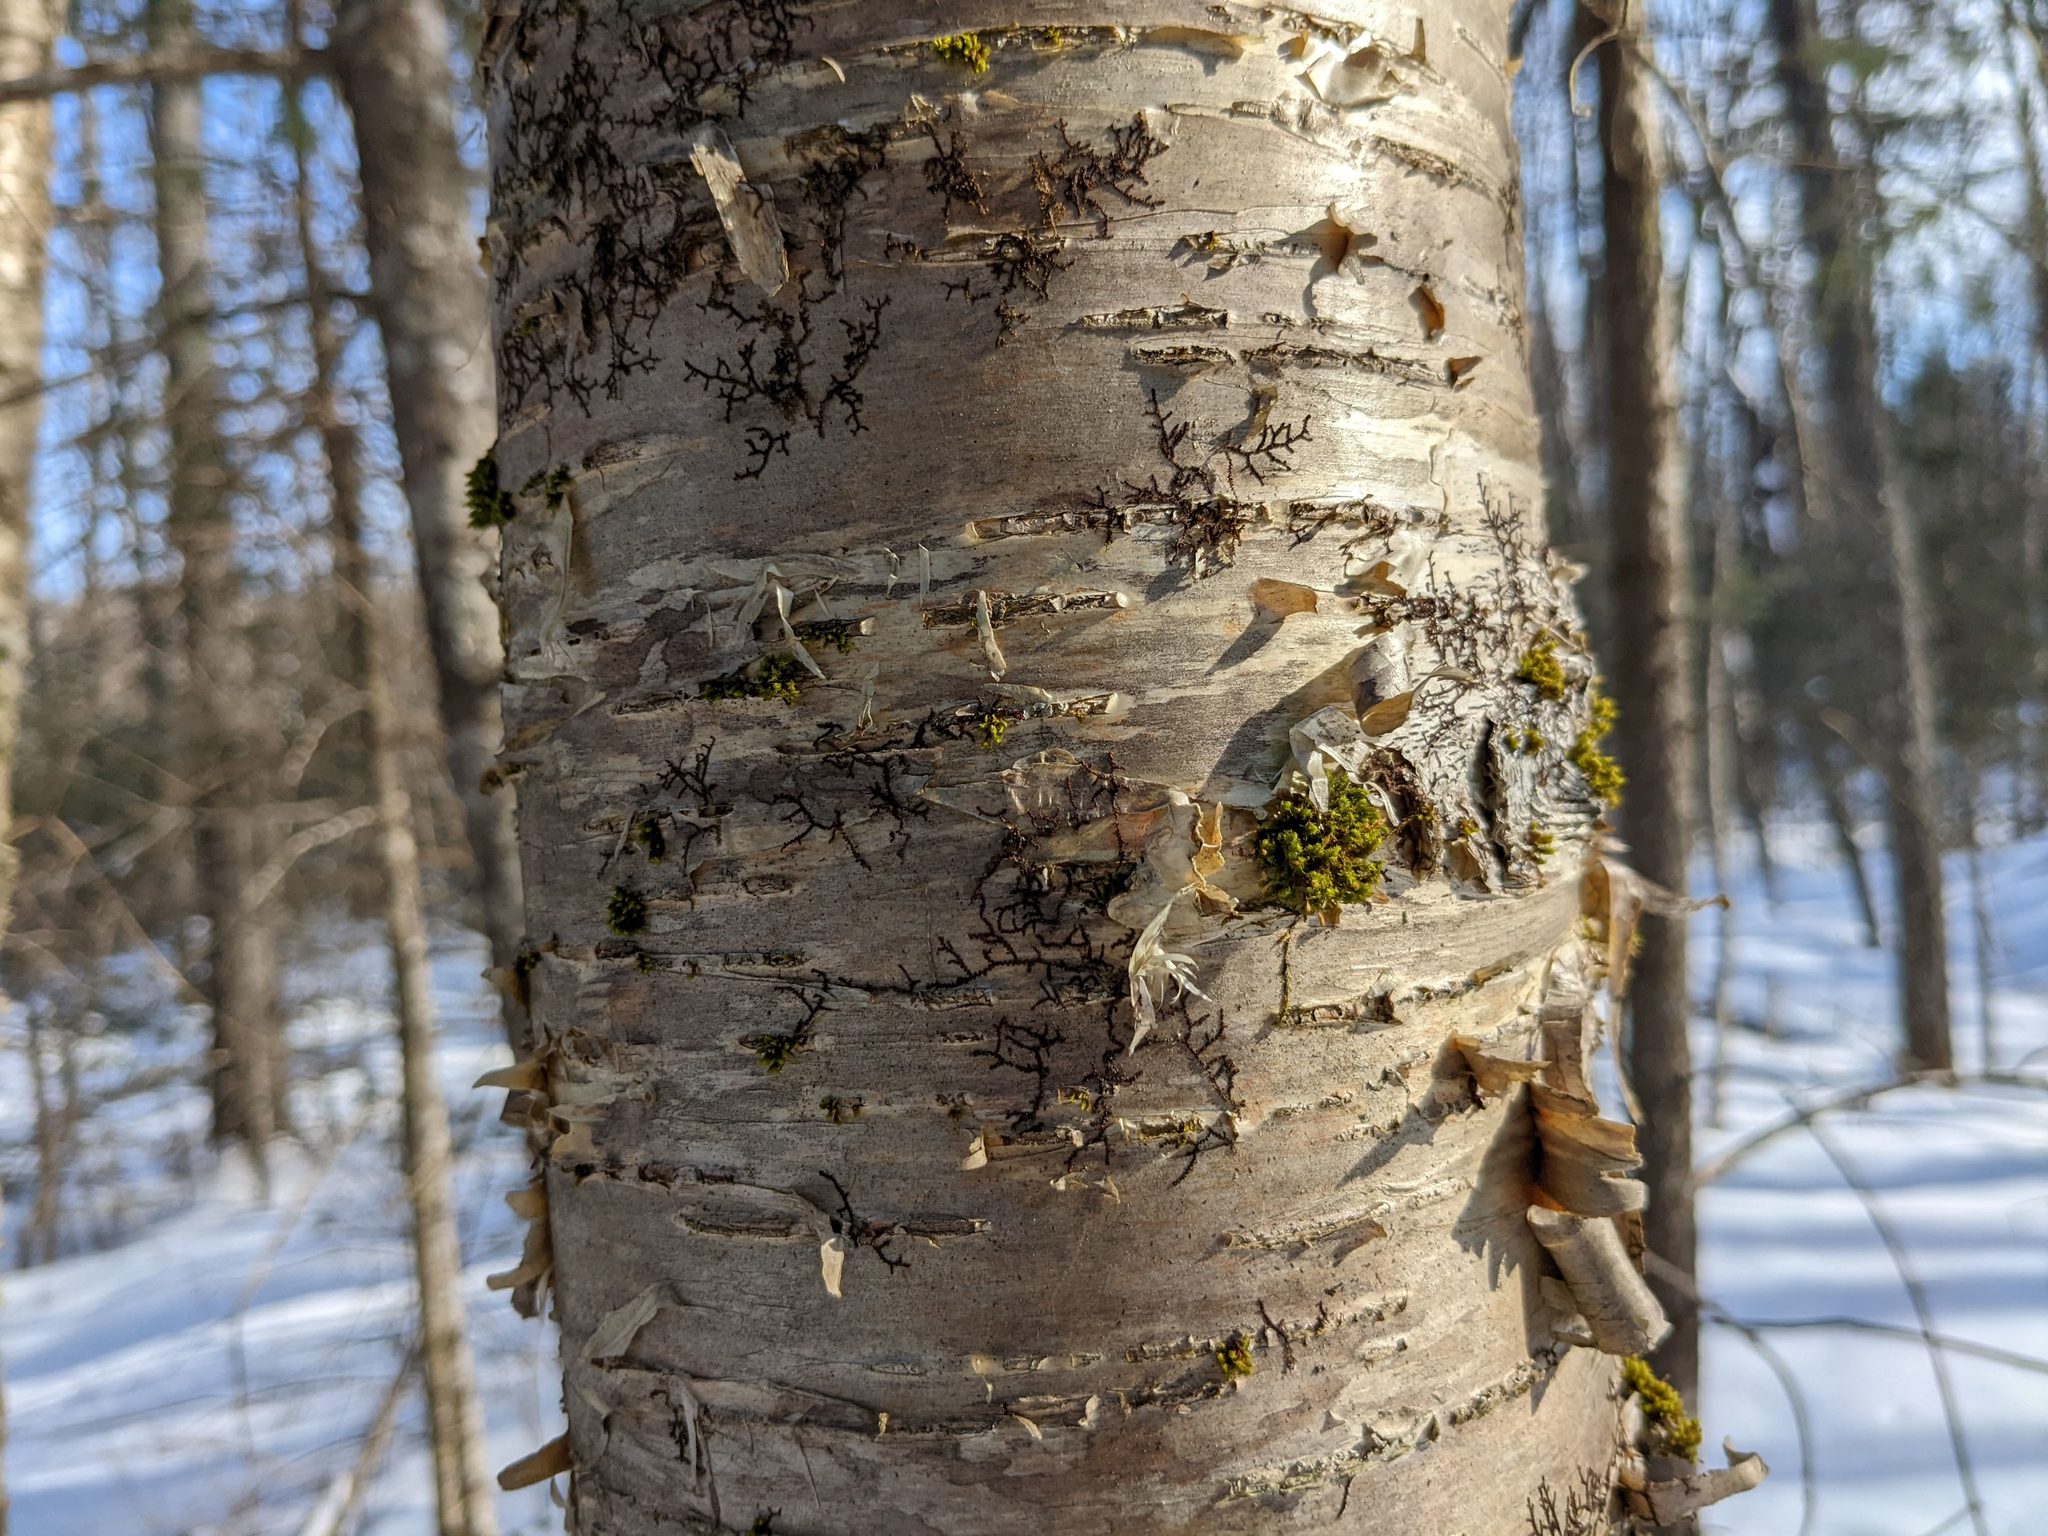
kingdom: Plantae
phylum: Bryophyta
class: Bryopsida
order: Orthotrichales
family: Orthotrichaceae
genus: Ulota
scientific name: Ulota crispa
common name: Crisped pincushion moss
